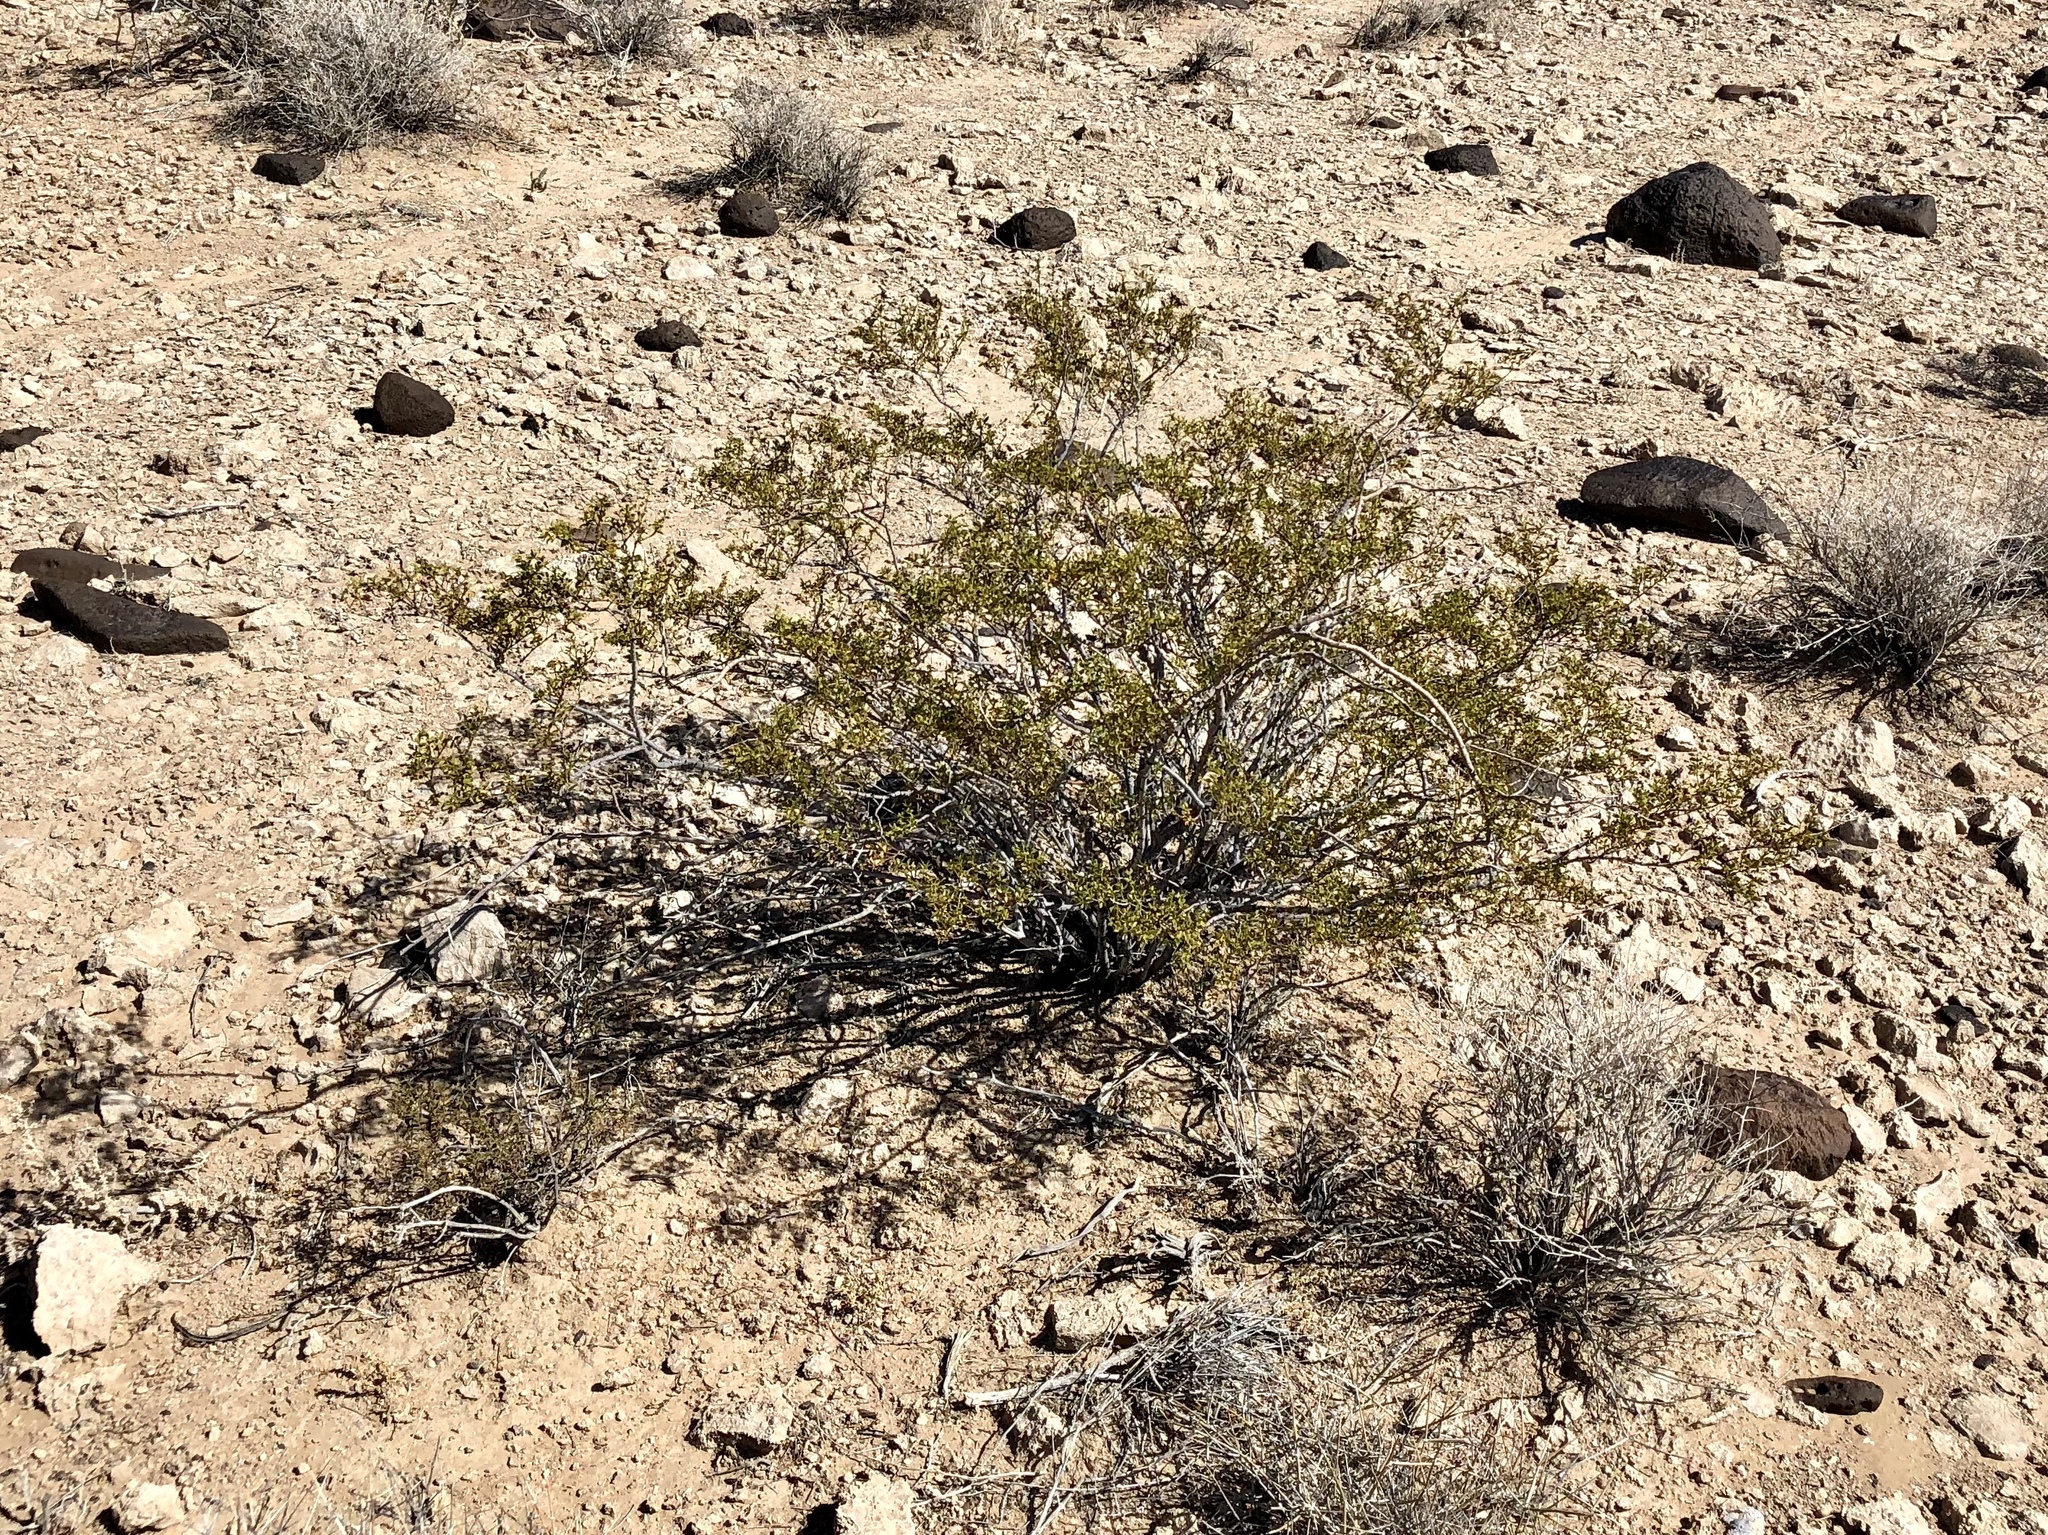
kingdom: Plantae
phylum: Tracheophyta
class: Magnoliopsida
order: Zygophyllales
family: Zygophyllaceae
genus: Larrea
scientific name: Larrea tridentata
